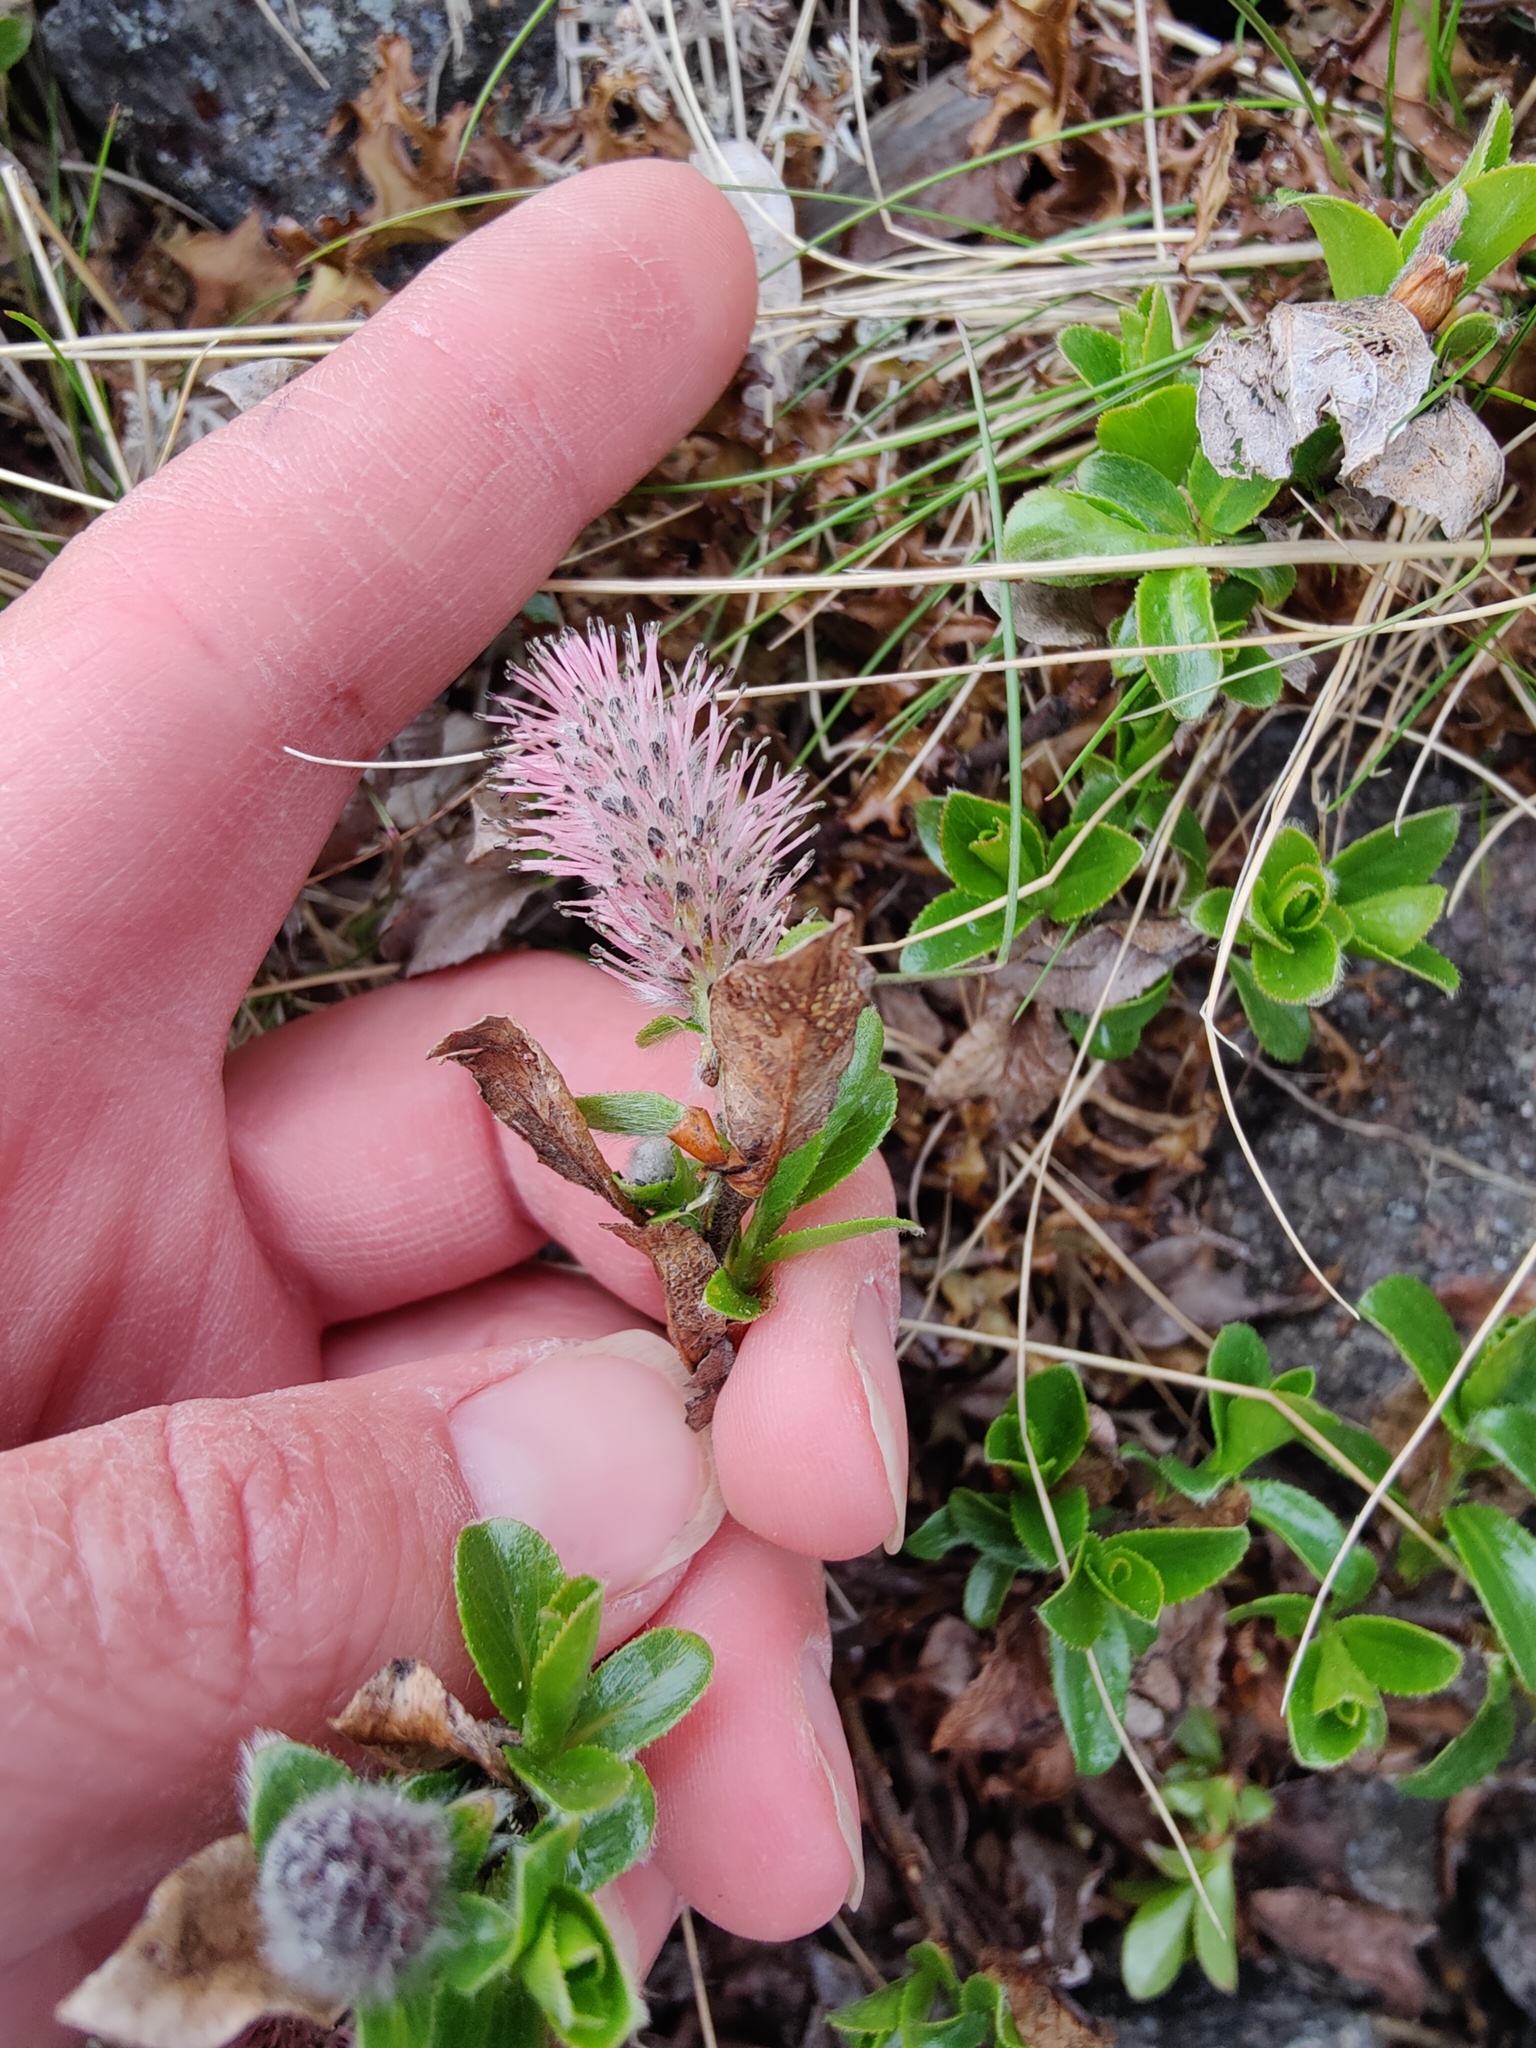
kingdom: Plantae
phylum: Tracheophyta
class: Magnoliopsida
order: Malpighiales
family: Salicaceae
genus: Salix
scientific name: Salix myrsinites
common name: Myrtle willow
